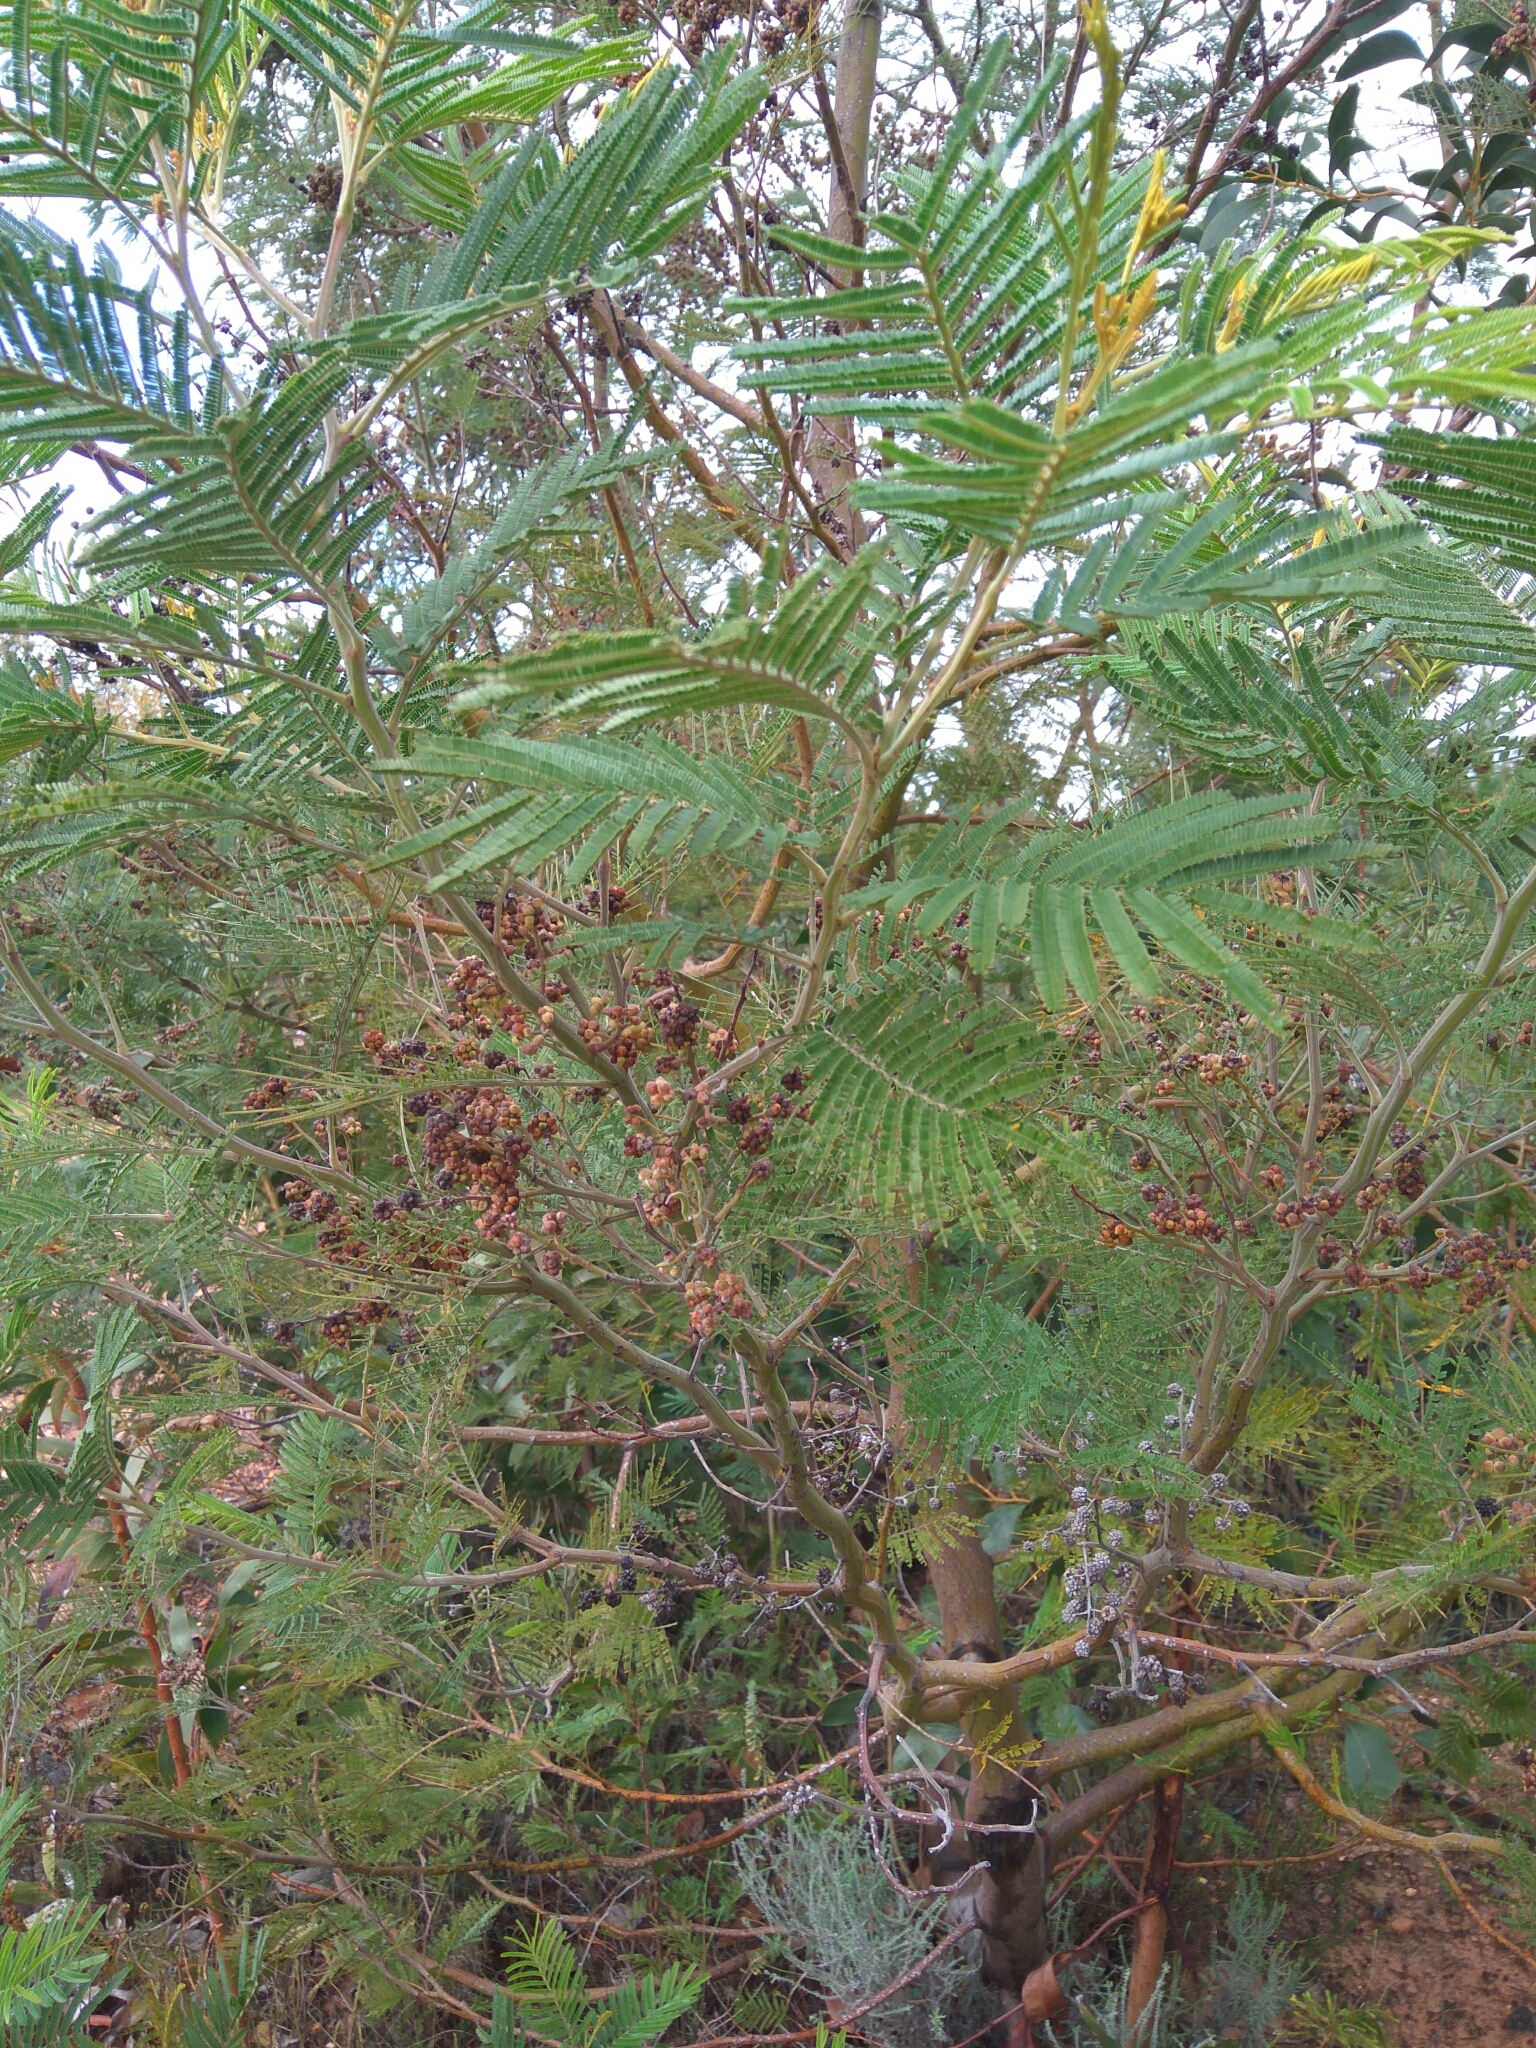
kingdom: Animalia
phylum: Arthropoda
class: Insecta
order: Diptera
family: Cecidomyiidae
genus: Dasineura
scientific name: Dasineura rubiformis
